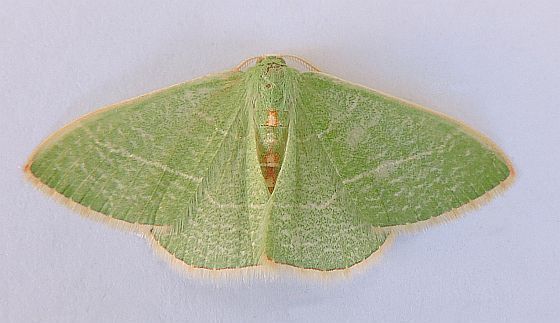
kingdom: Animalia
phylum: Arthropoda
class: Insecta
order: Lepidoptera
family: Geometridae
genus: Nemoria
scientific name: Nemoria festaria
